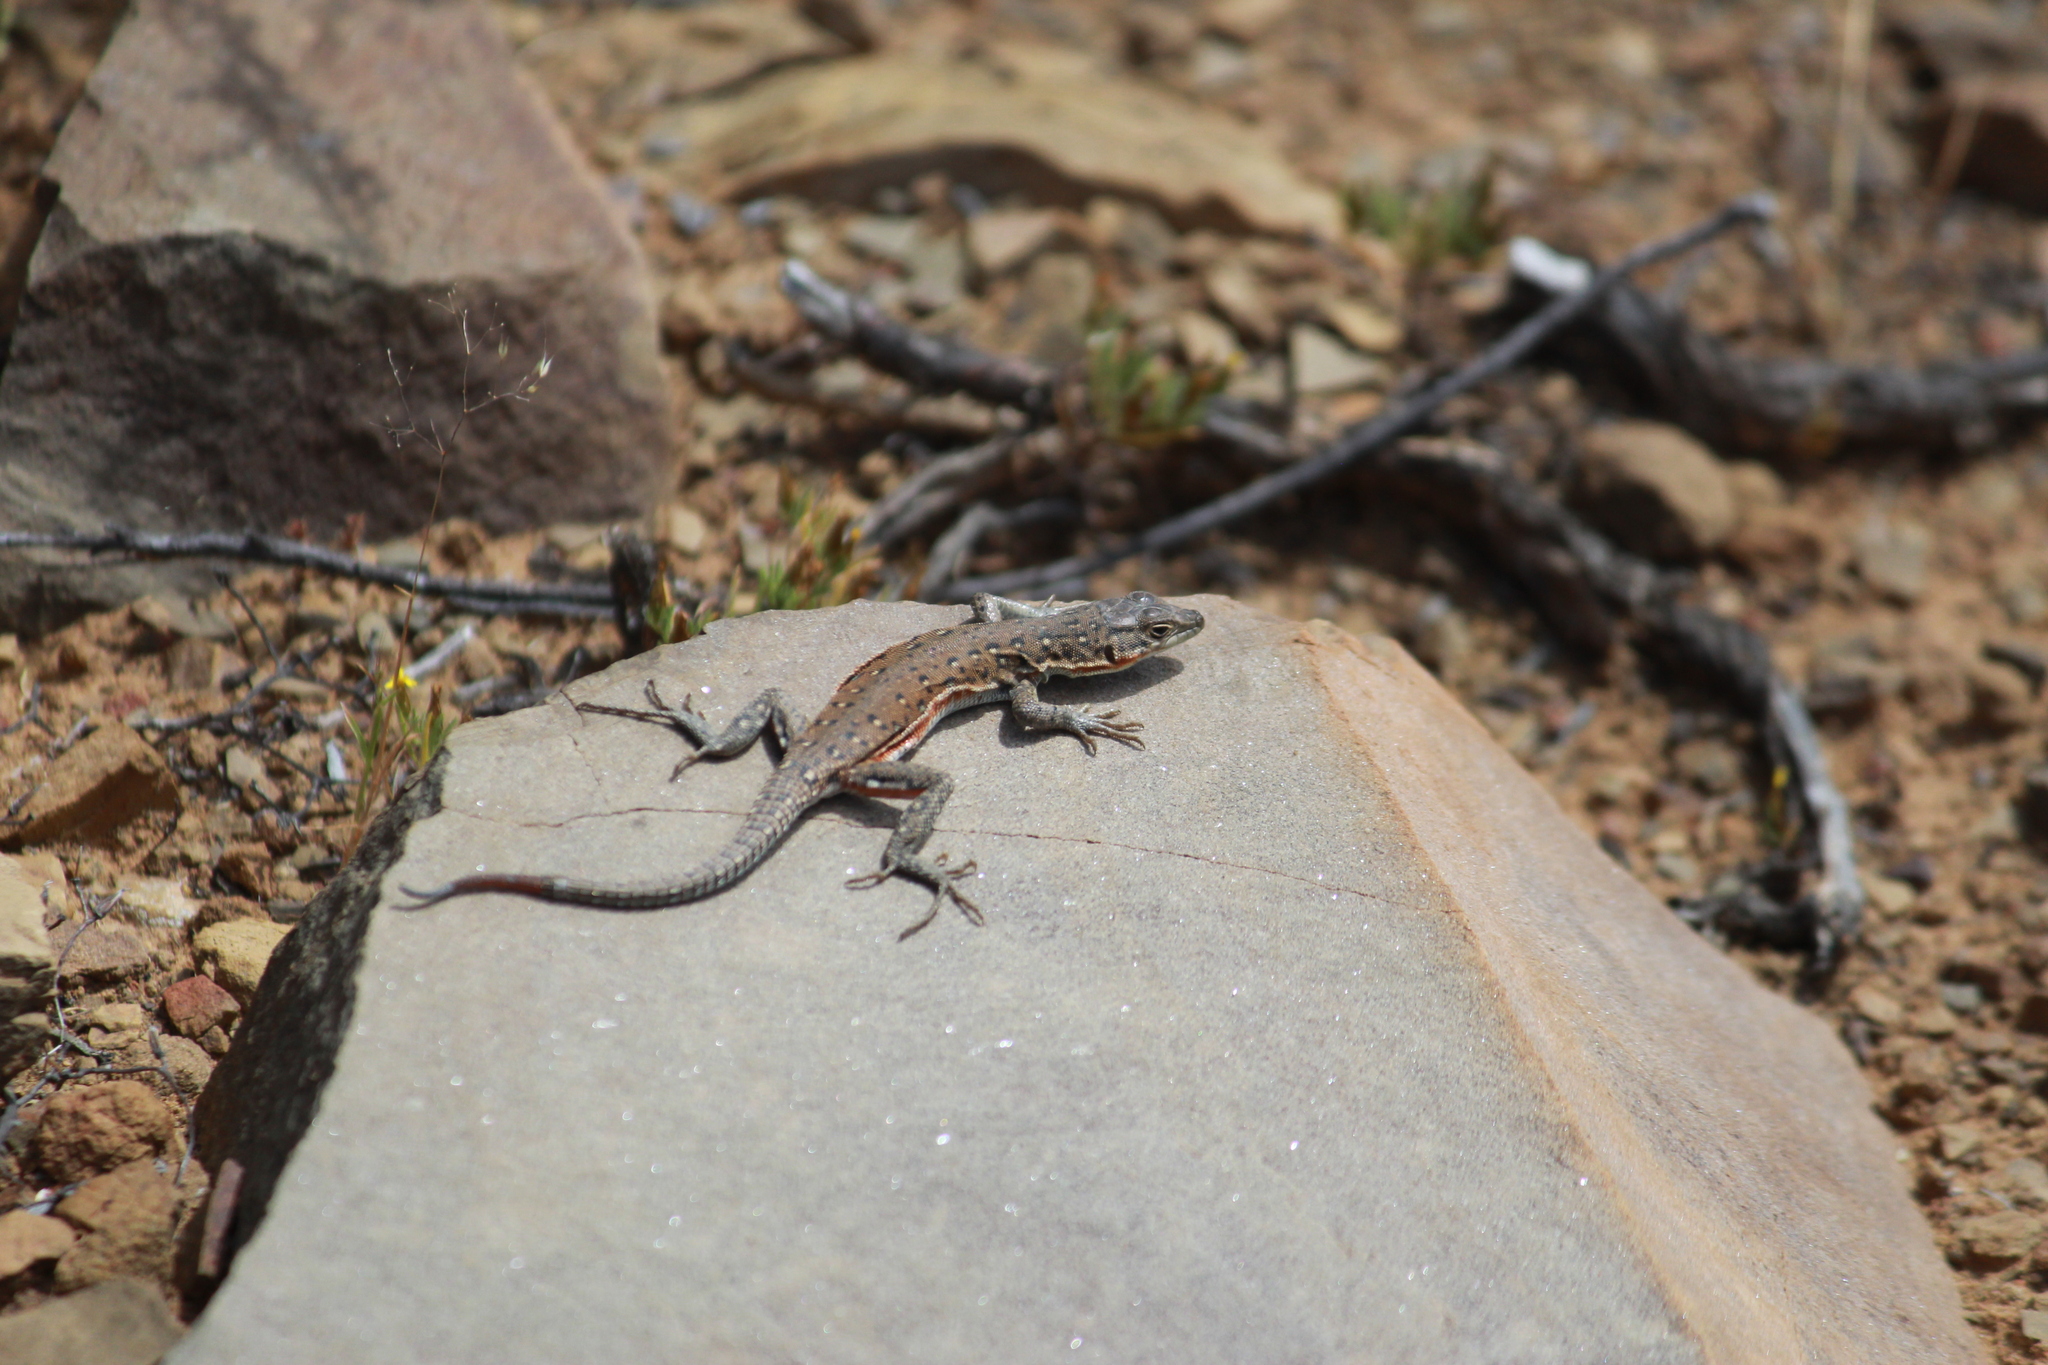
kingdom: Animalia
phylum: Chordata
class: Squamata
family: Lacertidae
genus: Pedioplanis
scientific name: Pedioplanis lineoocellata
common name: Spotted sand lizard
